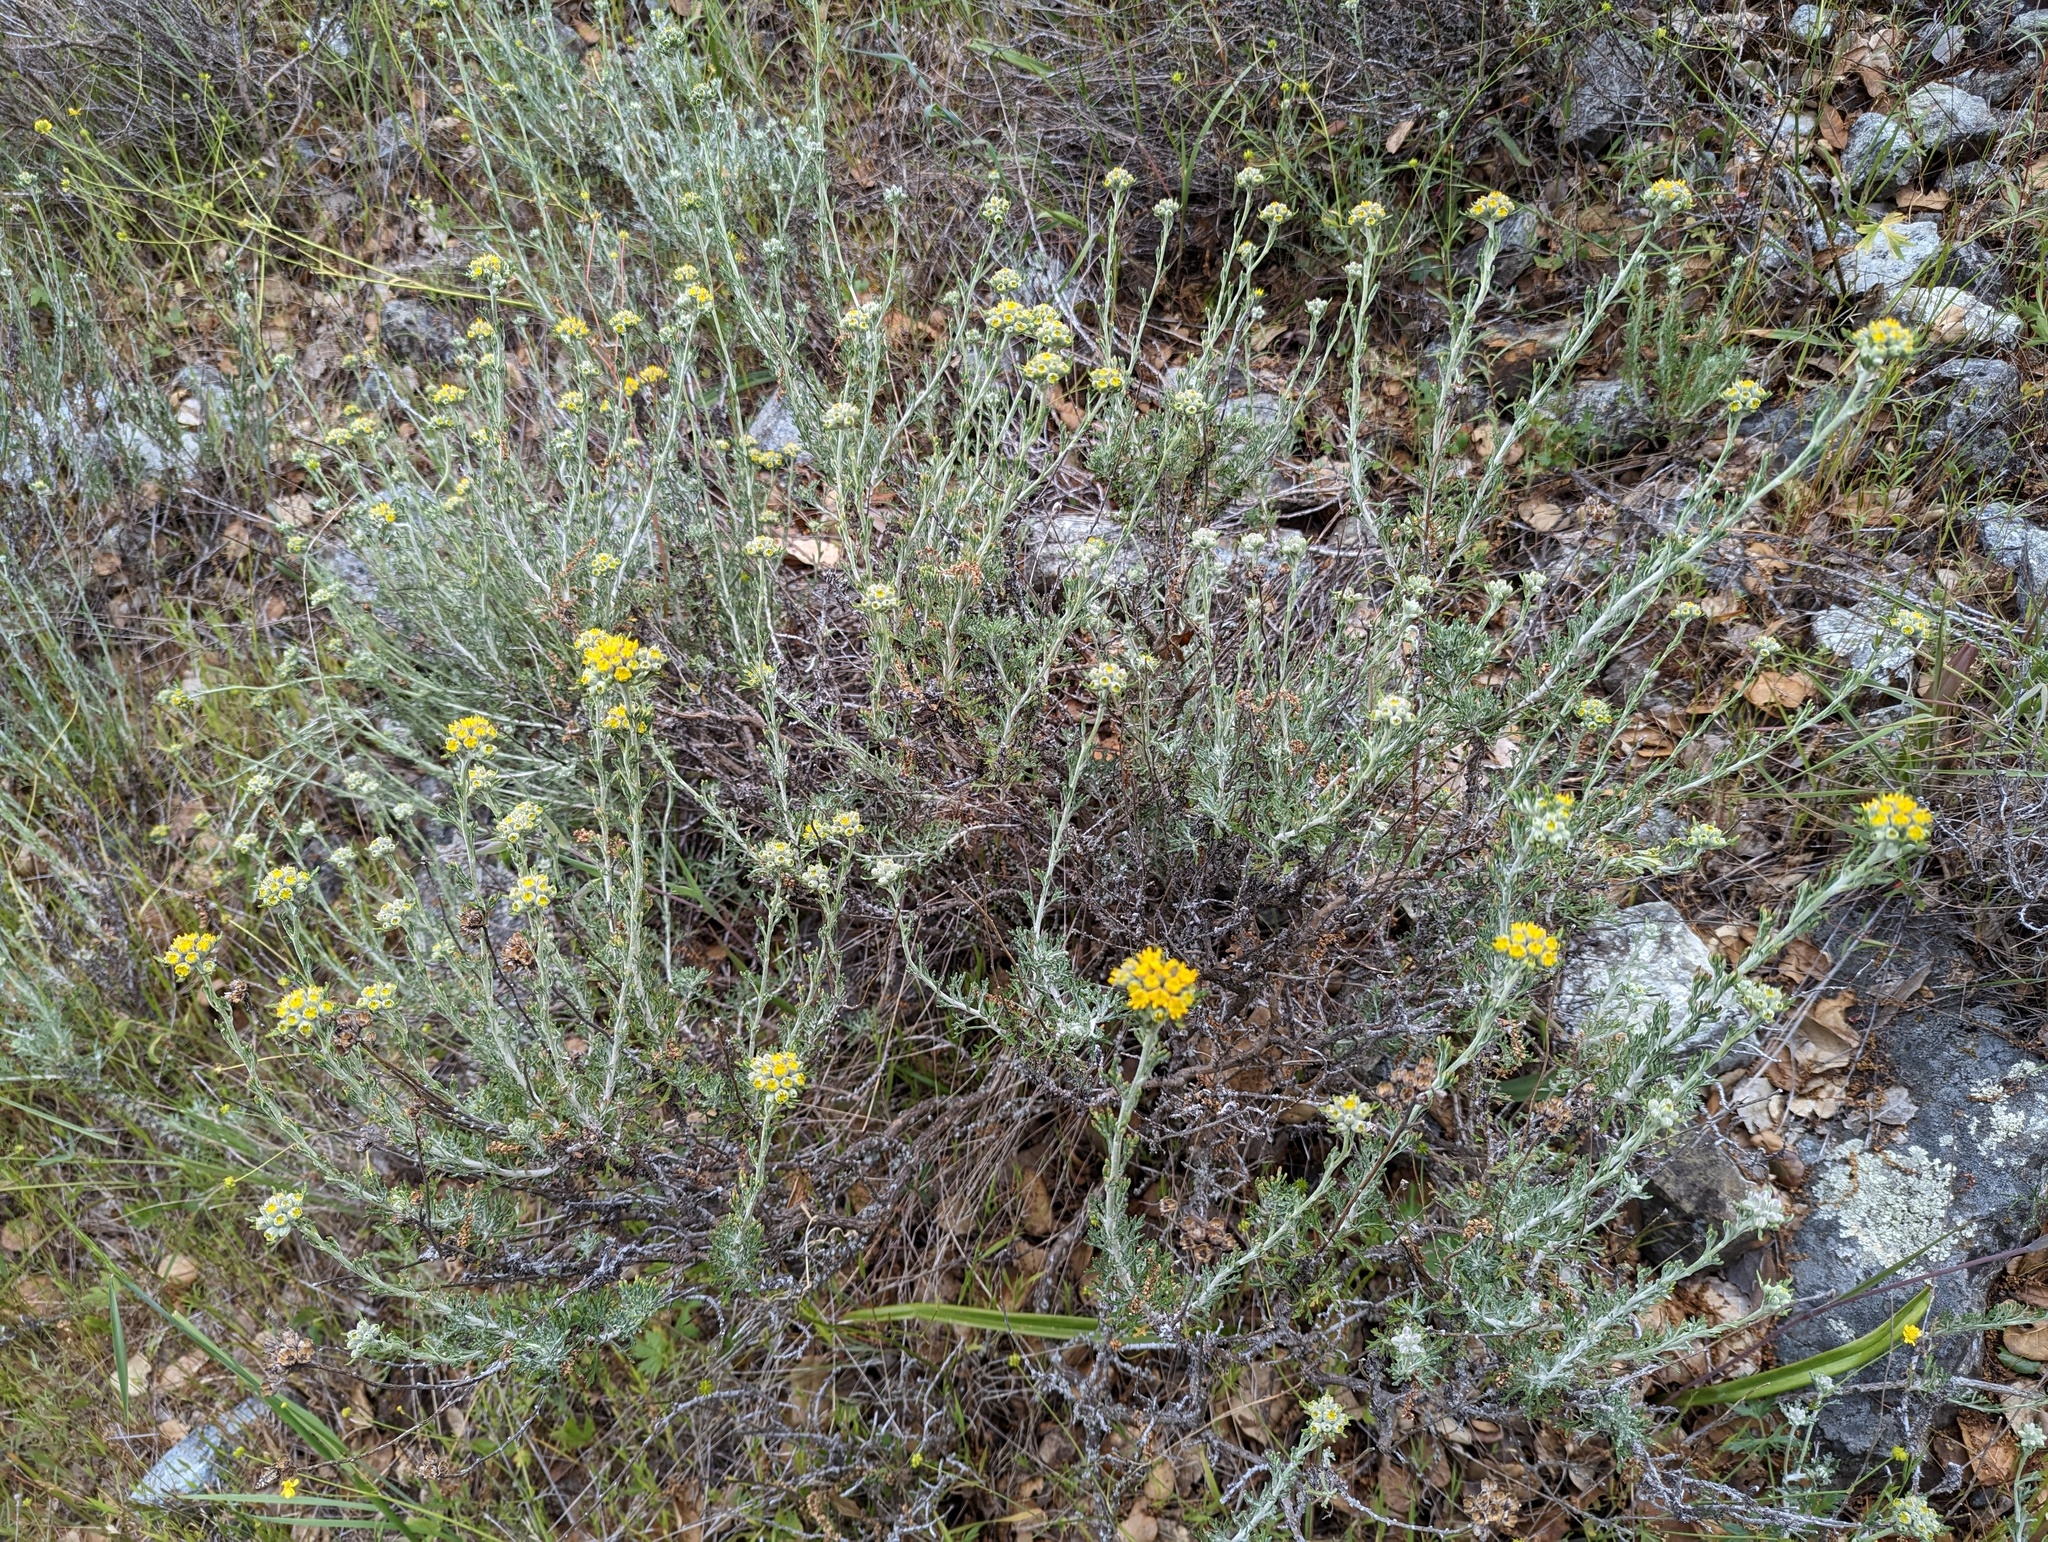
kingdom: Plantae
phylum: Tracheophyta
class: Magnoliopsida
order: Asterales
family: Asteraceae
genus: Eriophyllum
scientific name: Eriophyllum confertiflorum
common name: Golden-yarrow
